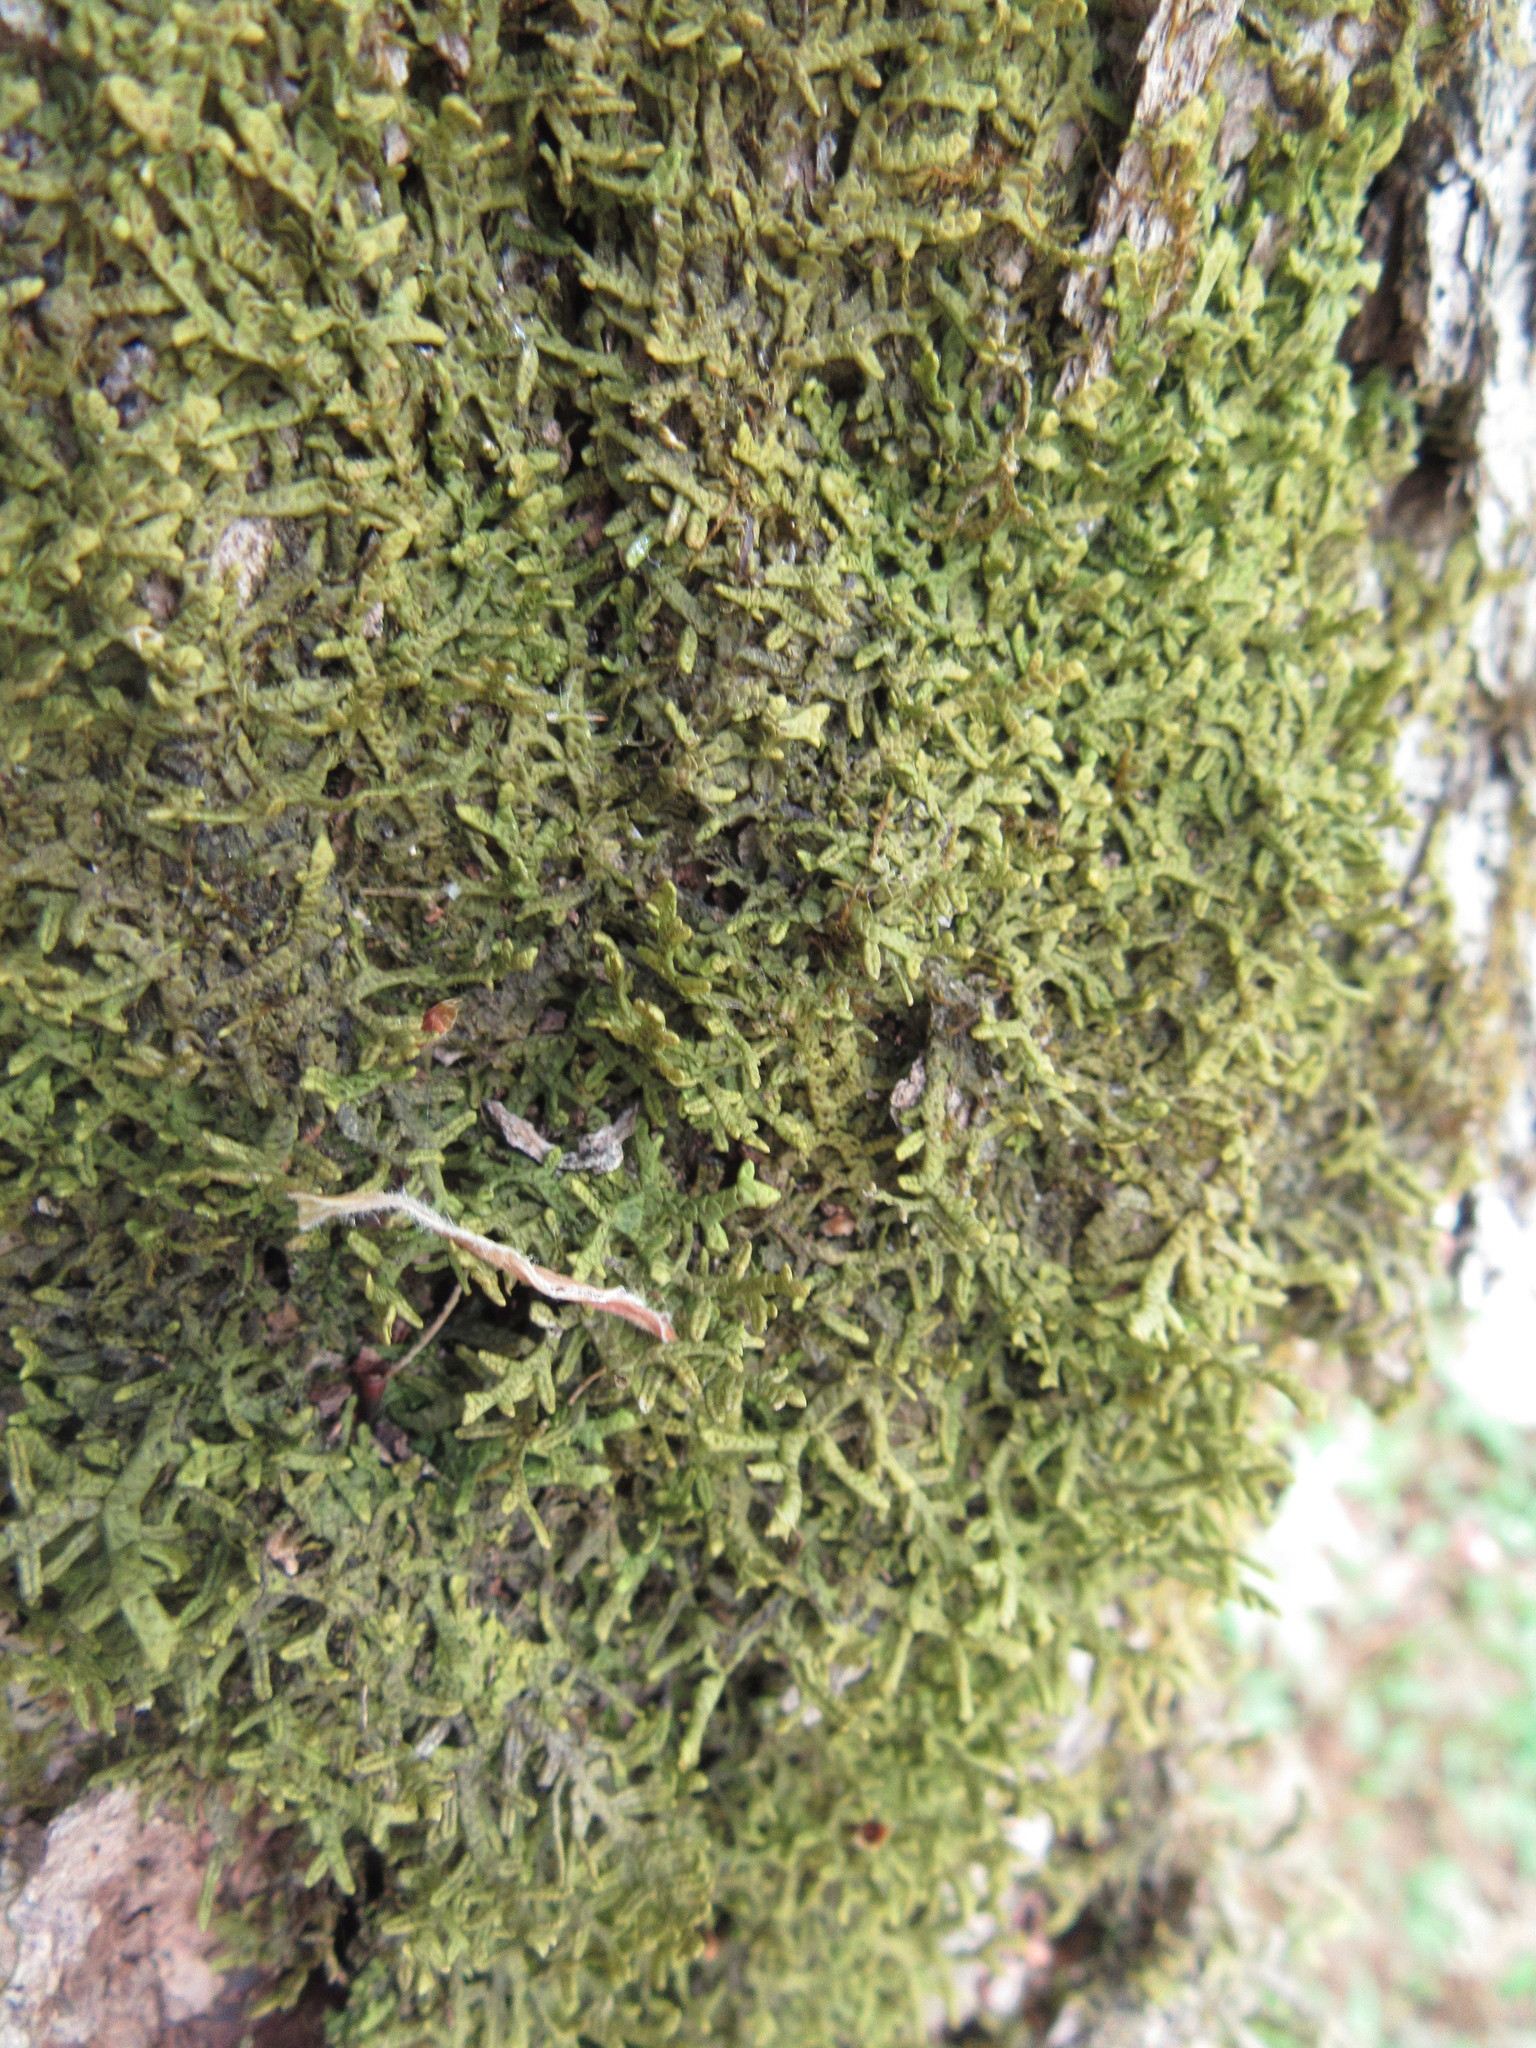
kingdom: Plantae
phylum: Marchantiophyta
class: Jungermanniopsida
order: Porellales
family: Porellaceae
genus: Porella
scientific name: Porella platyphylla
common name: Wall scalewort
